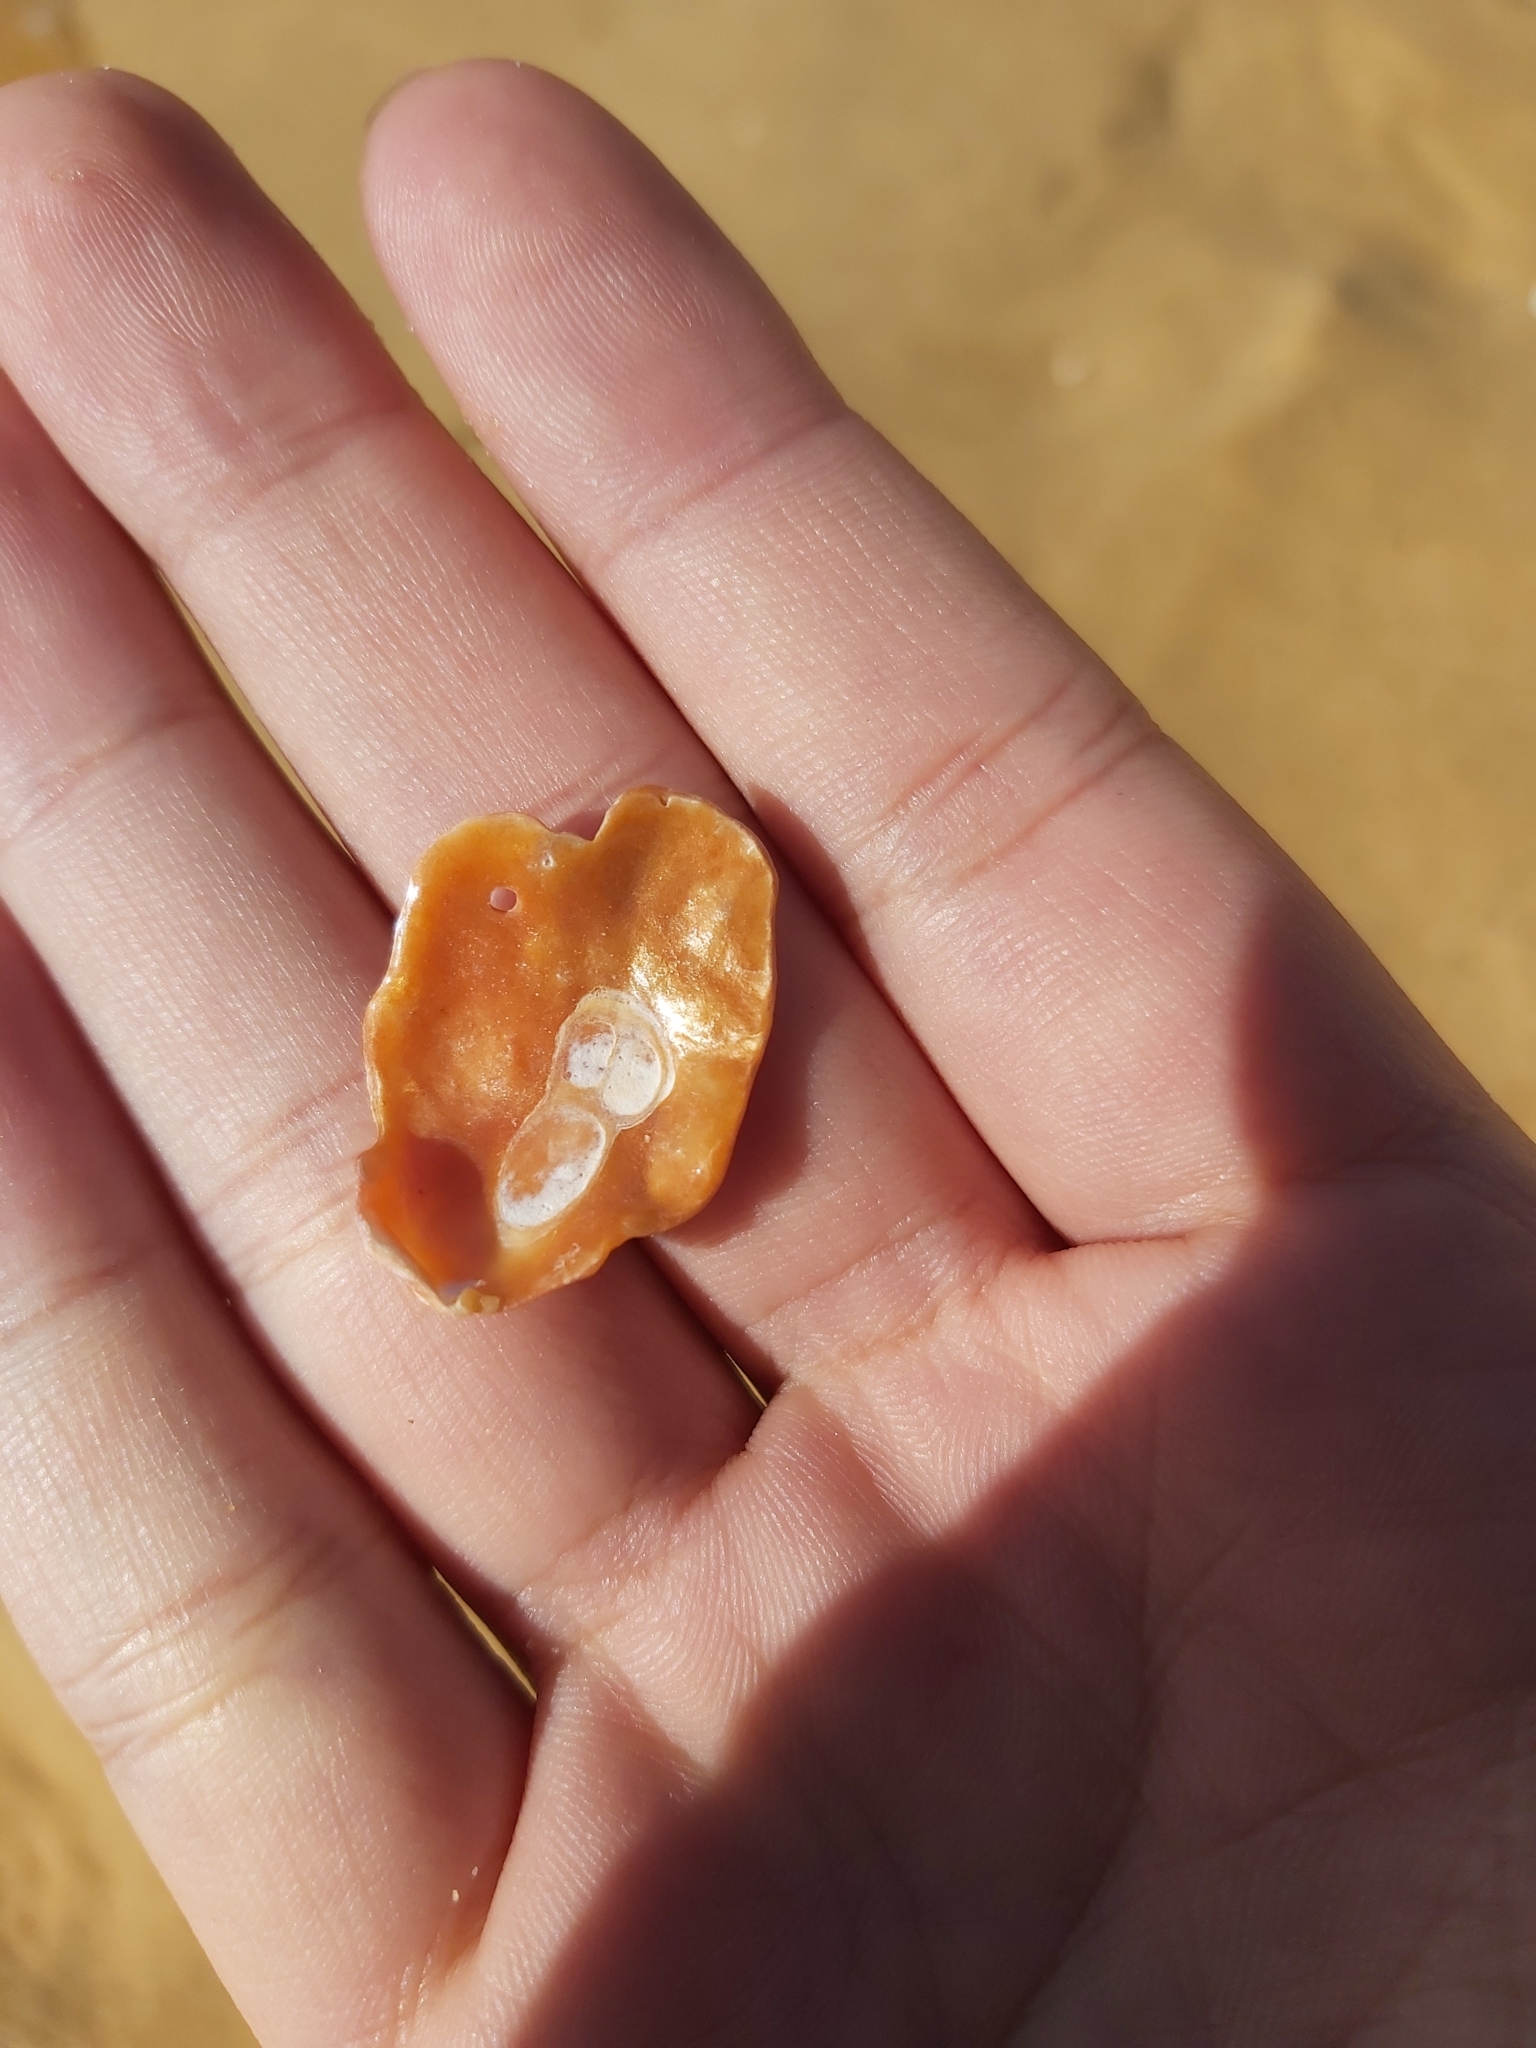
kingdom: Animalia
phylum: Mollusca
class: Bivalvia
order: Pectinida
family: Anomiidae
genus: Anomia
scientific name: Anomia trigonopsis
